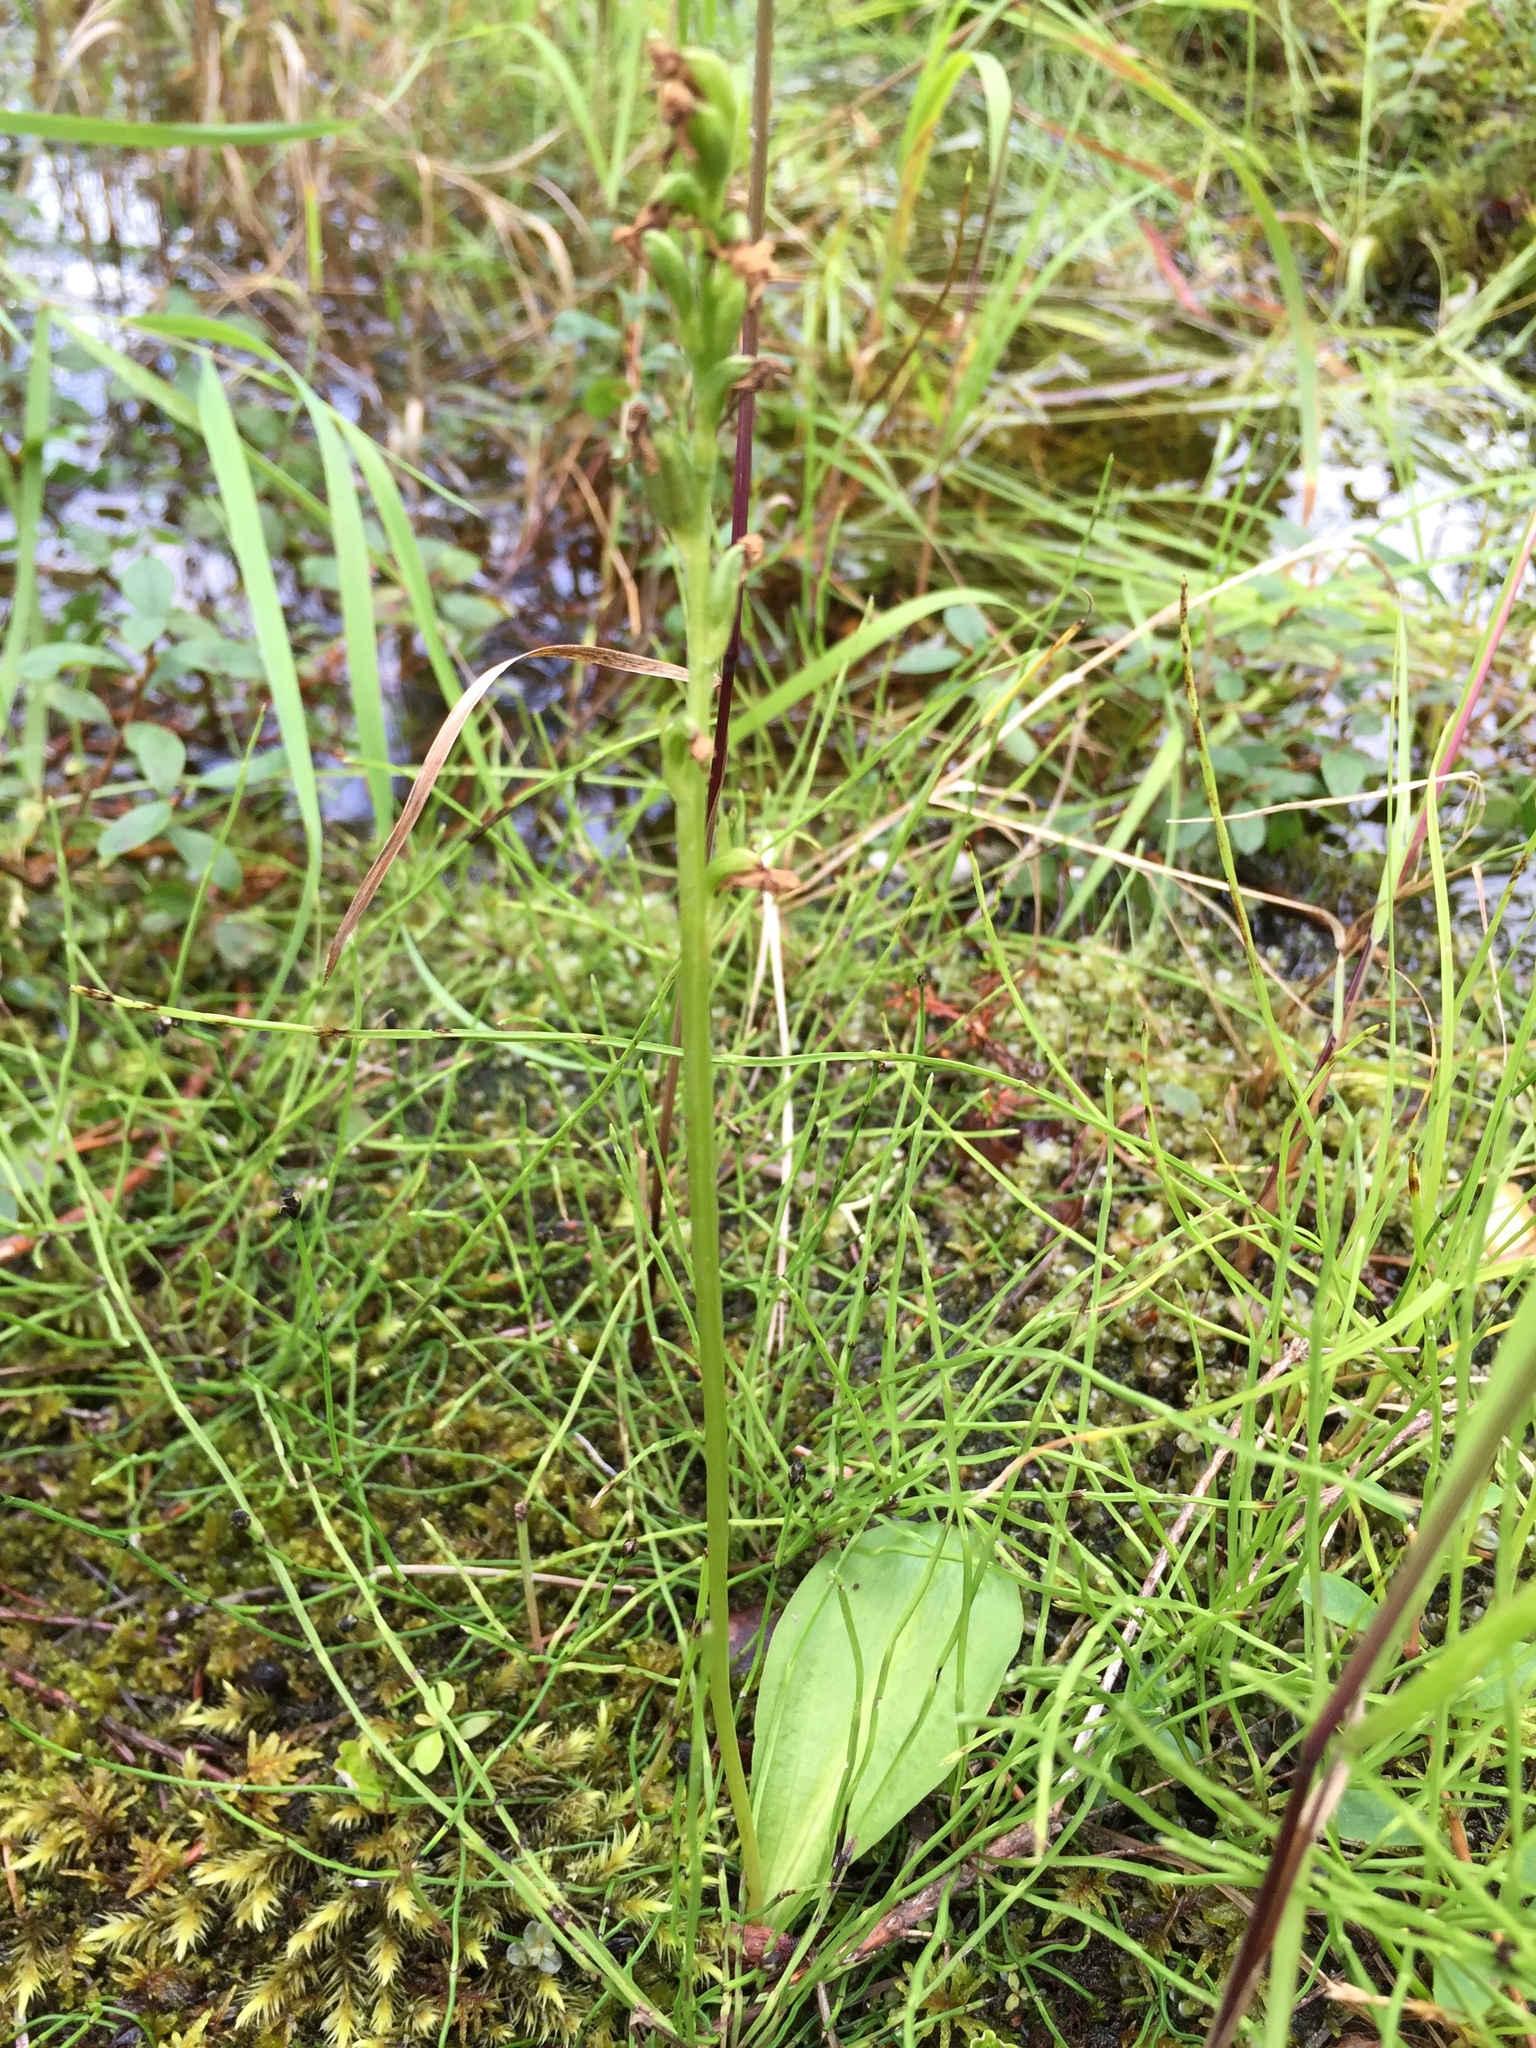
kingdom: Plantae
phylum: Tracheophyta
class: Liliopsida
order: Asparagales
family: Orchidaceae
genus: Platanthera
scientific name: Platanthera obtusata
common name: Blunt bog orchid
